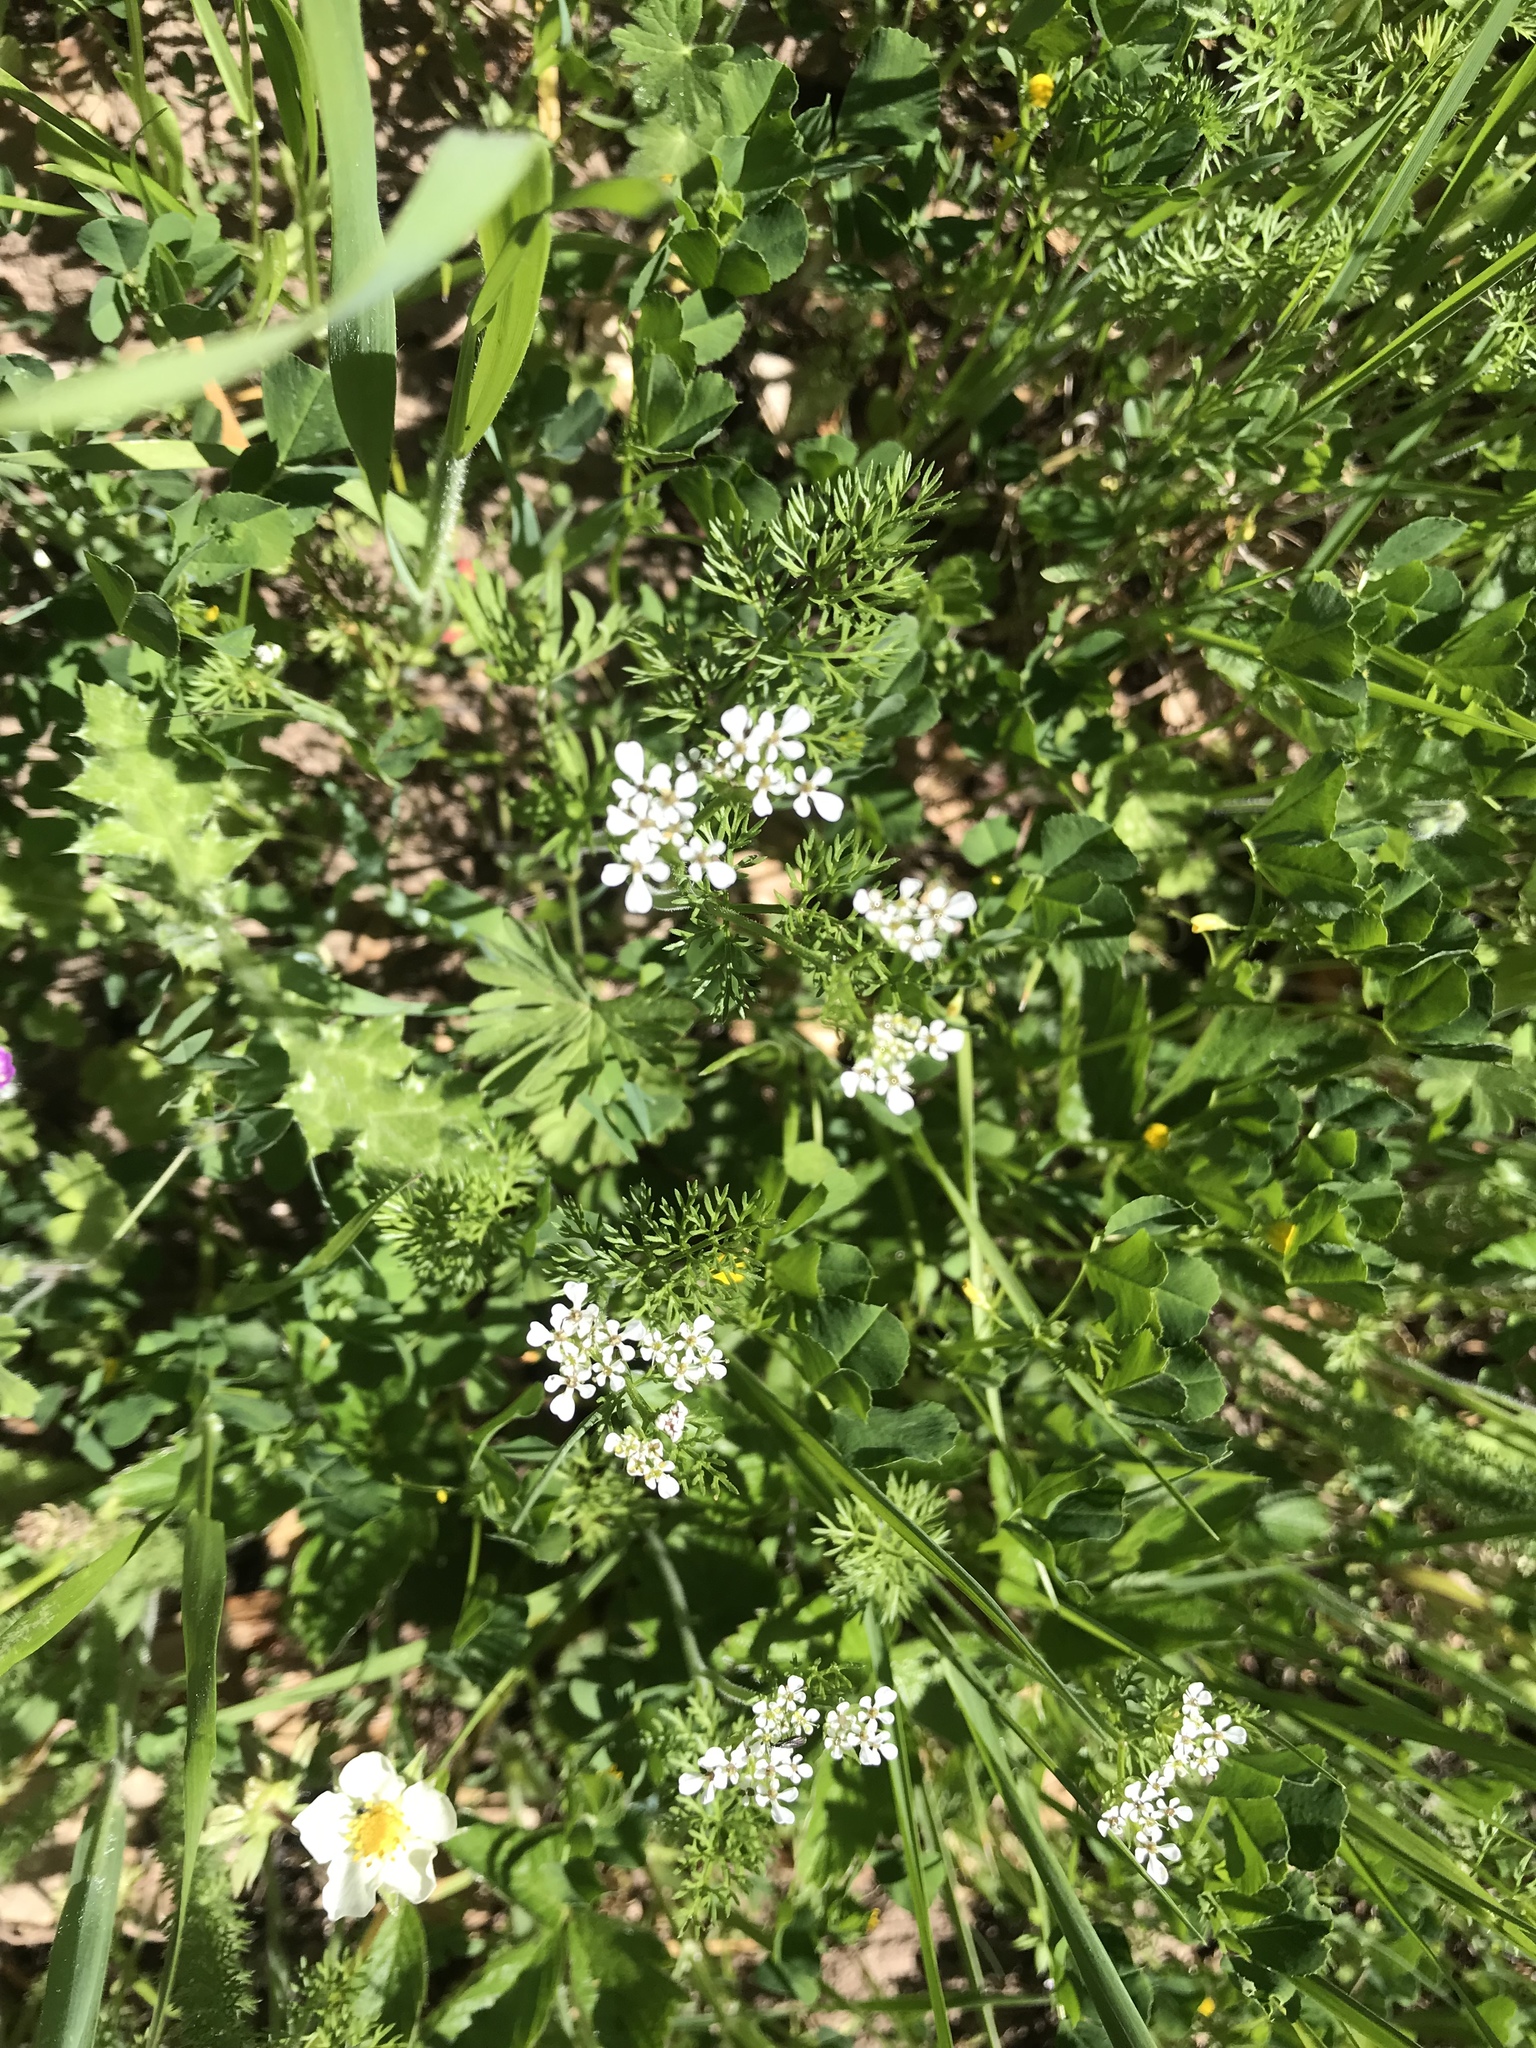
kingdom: Plantae
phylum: Tracheophyta
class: Magnoliopsida
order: Apiales
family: Apiaceae
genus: Scandix
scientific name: Scandix pecten-veneris
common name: Shepherd's-needle
